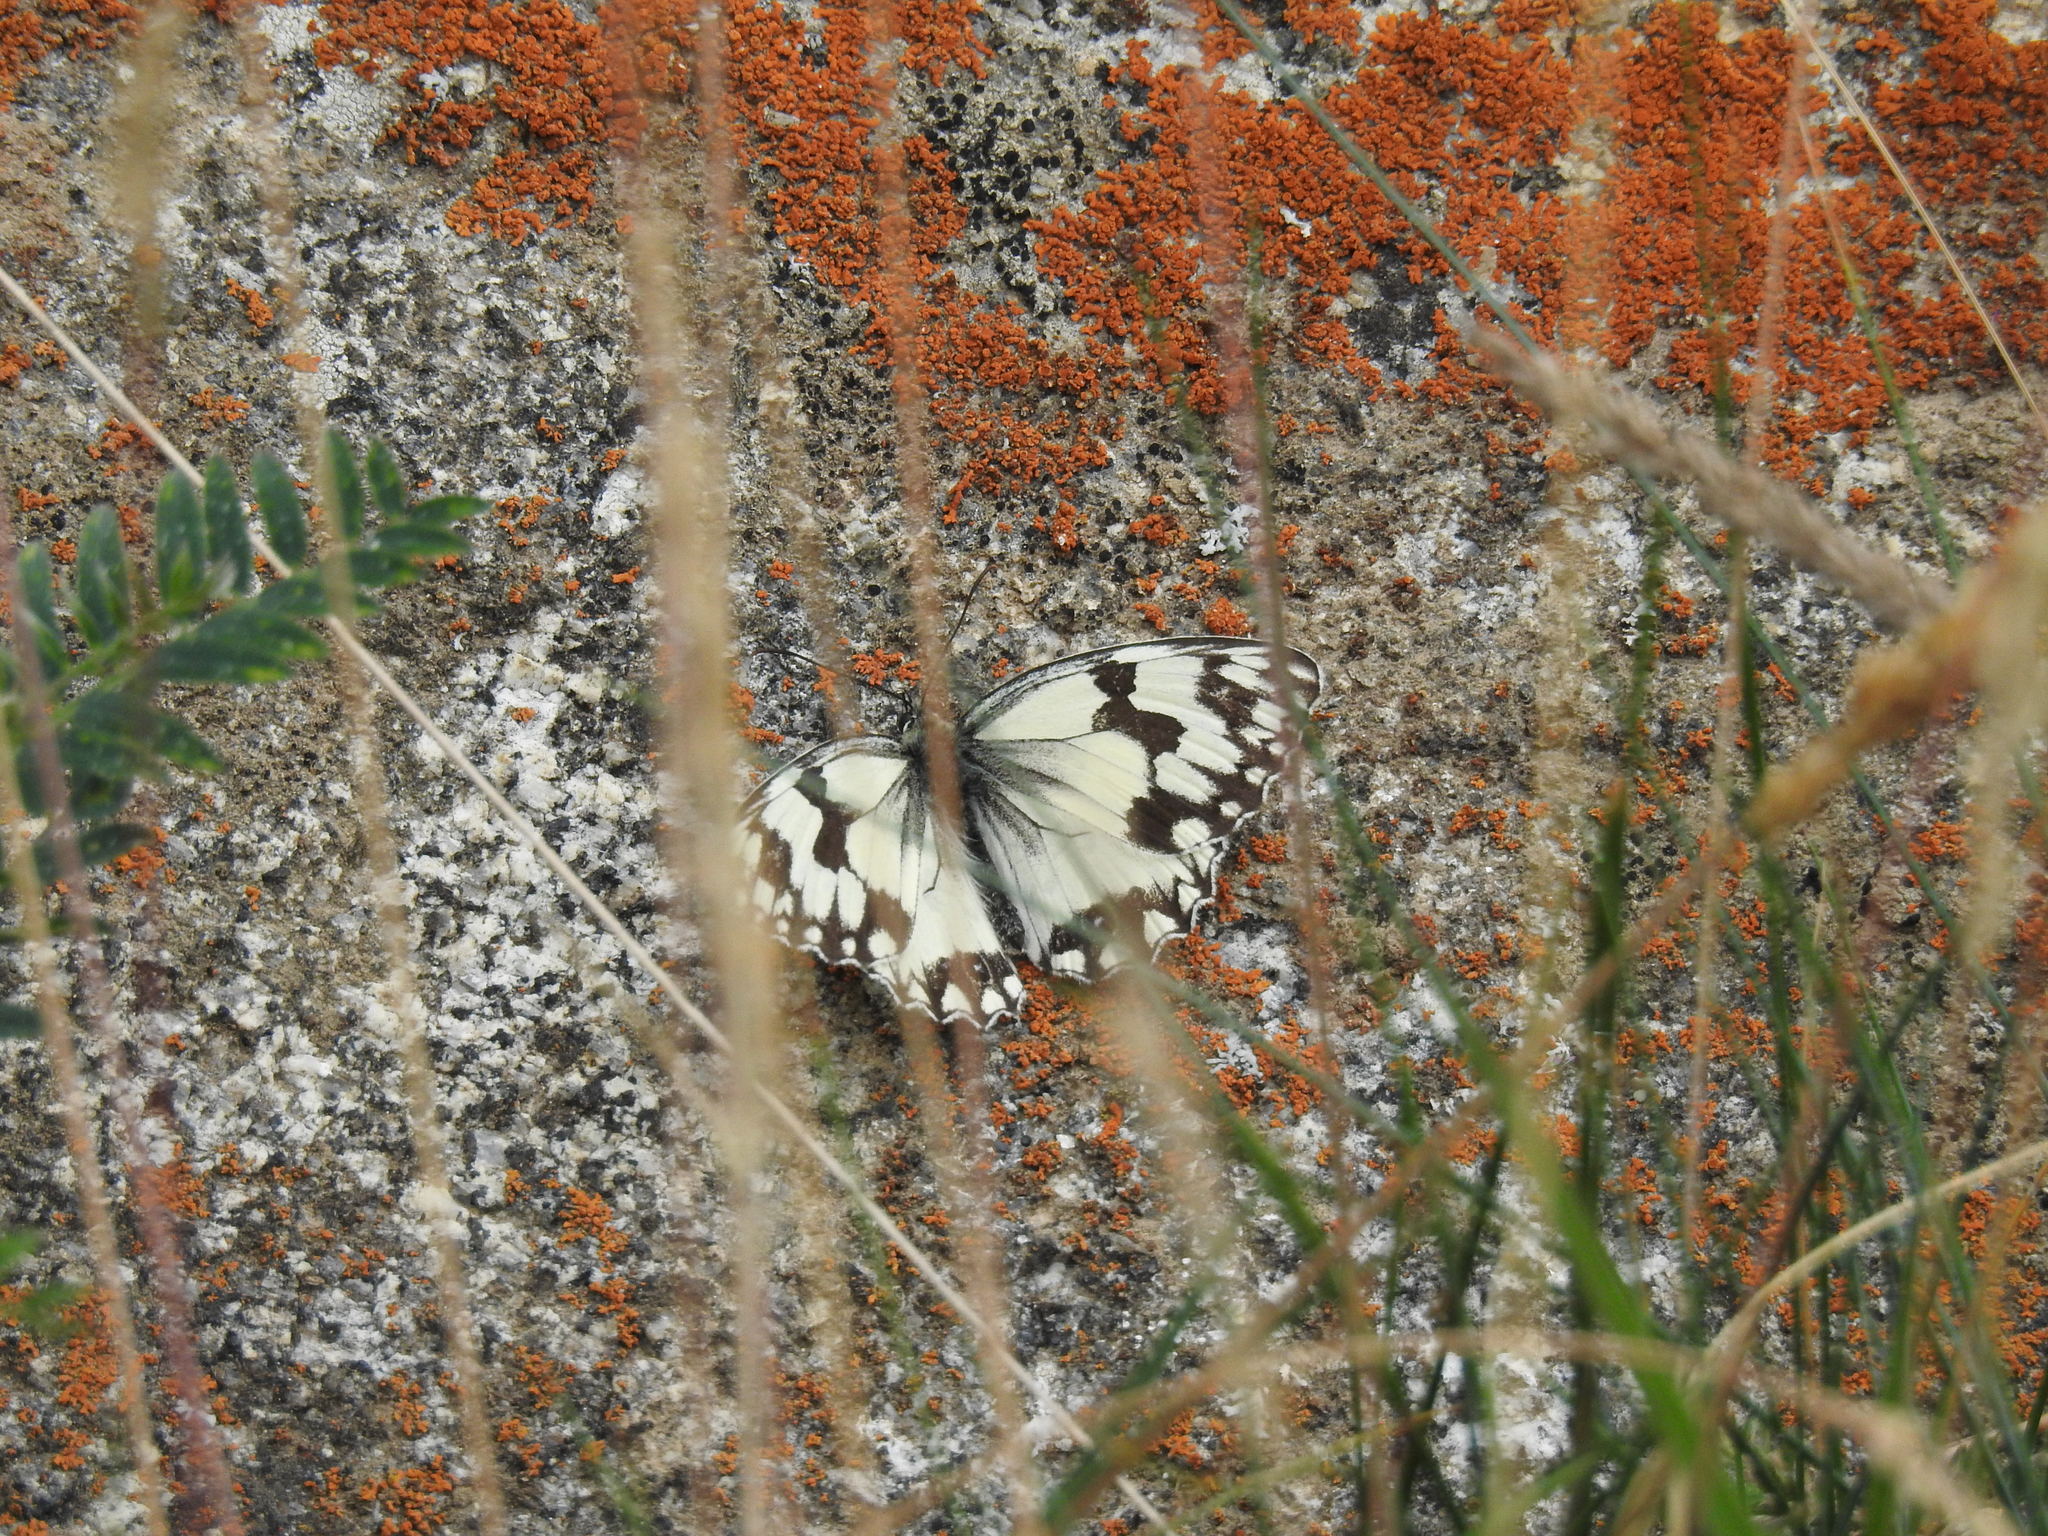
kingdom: Animalia
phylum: Arthropoda
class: Insecta
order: Lepidoptera
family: Nymphalidae
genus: Melanargia
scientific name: Melanargia lachesis
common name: Iberian marbled white
